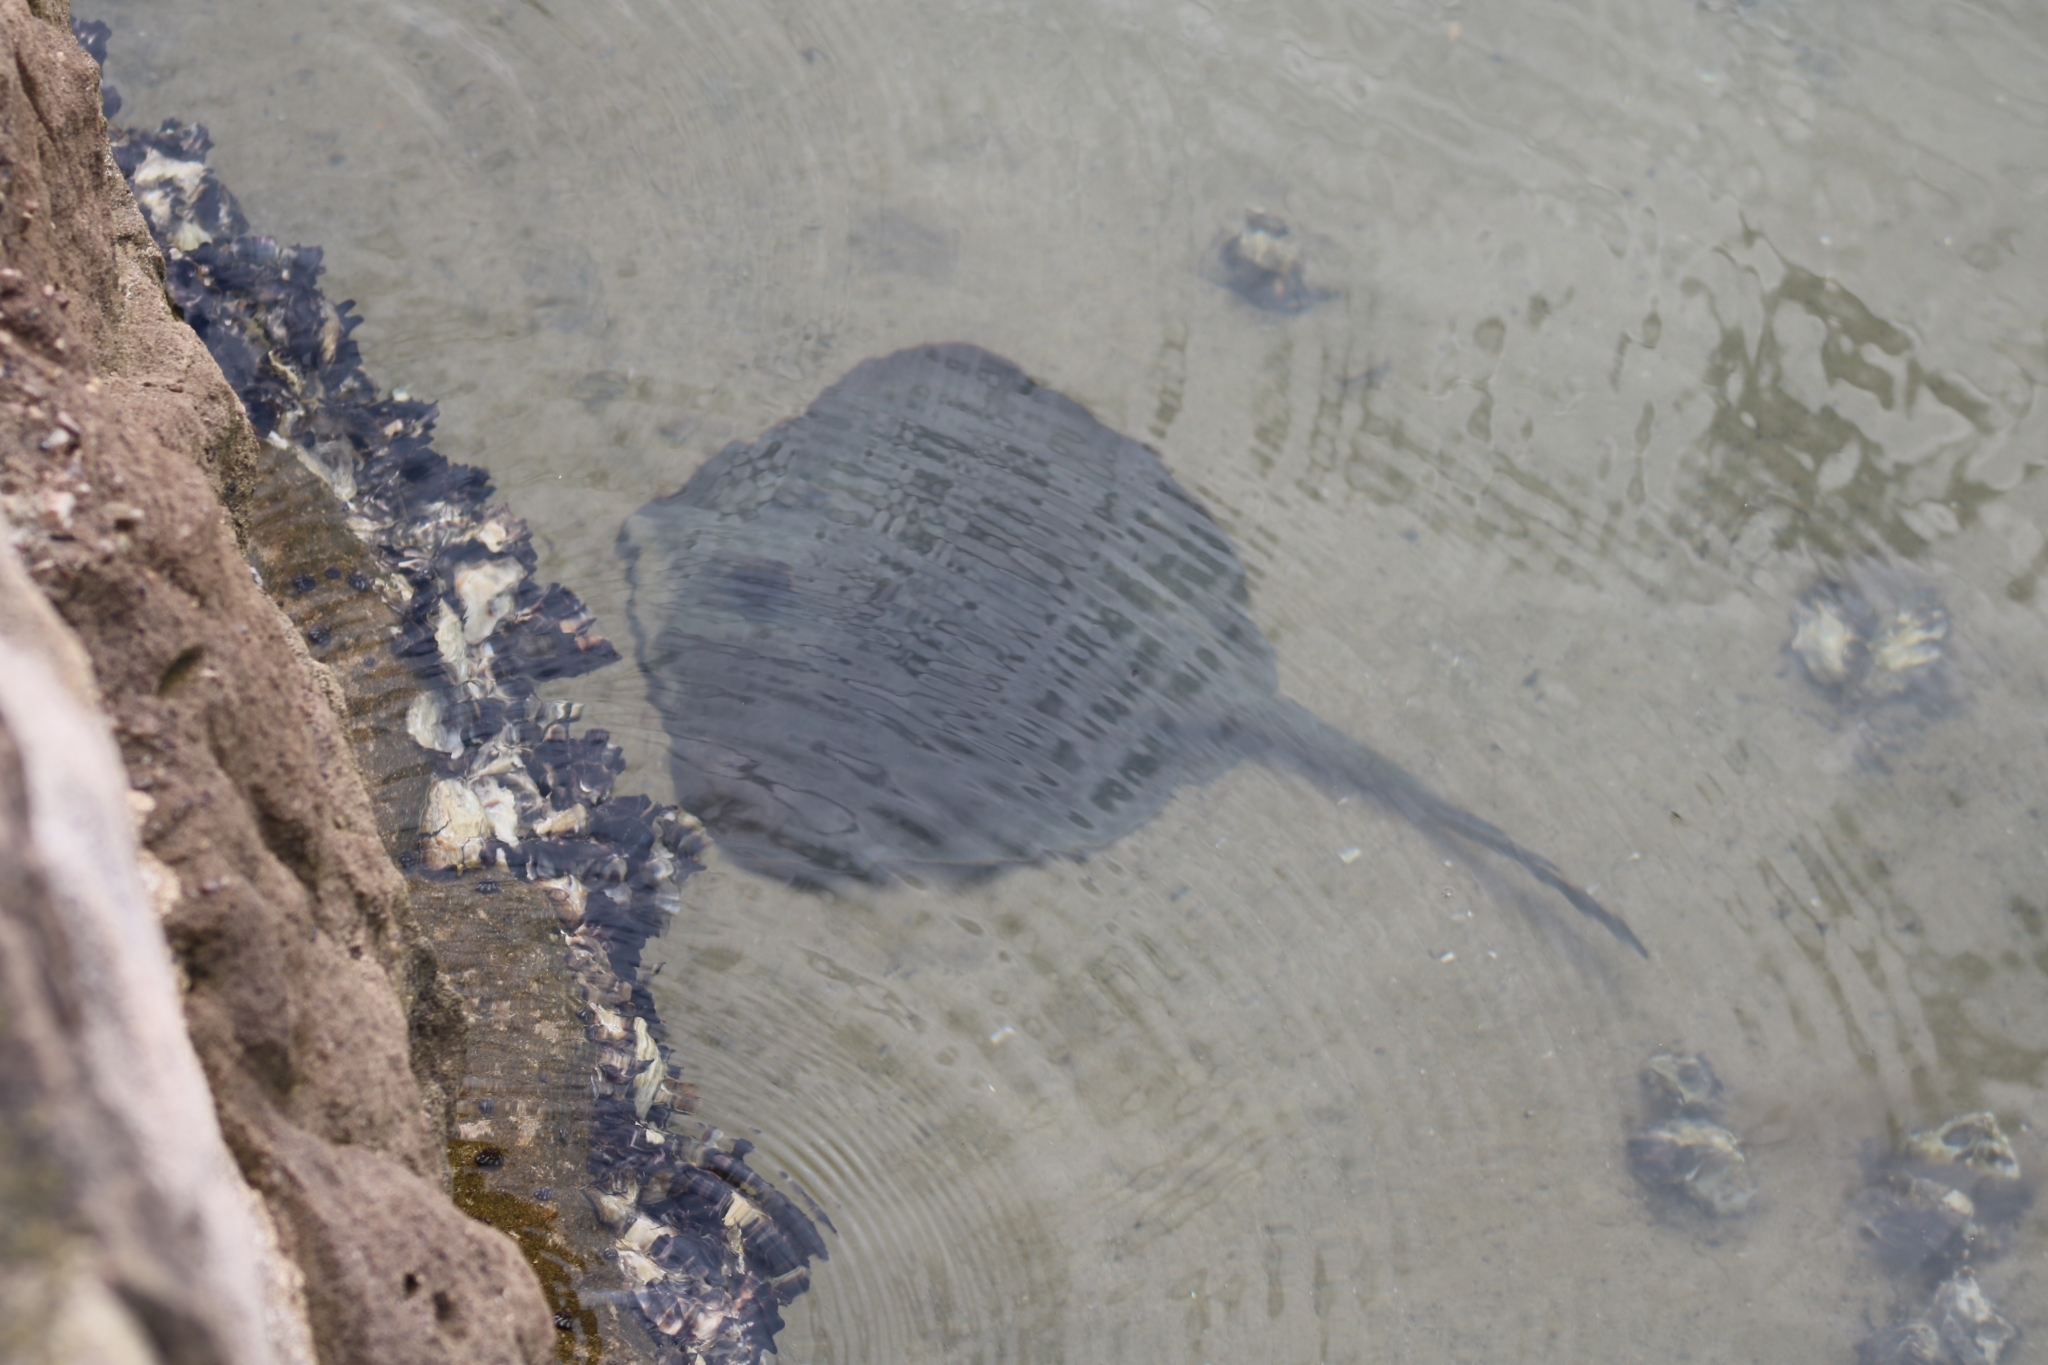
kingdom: Animalia
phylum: Chordata
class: Elasmobranchii
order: Myliobatiformes
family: Urolophidae
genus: Trygonoptera
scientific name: Trygonoptera testacea
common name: Common stingaree
